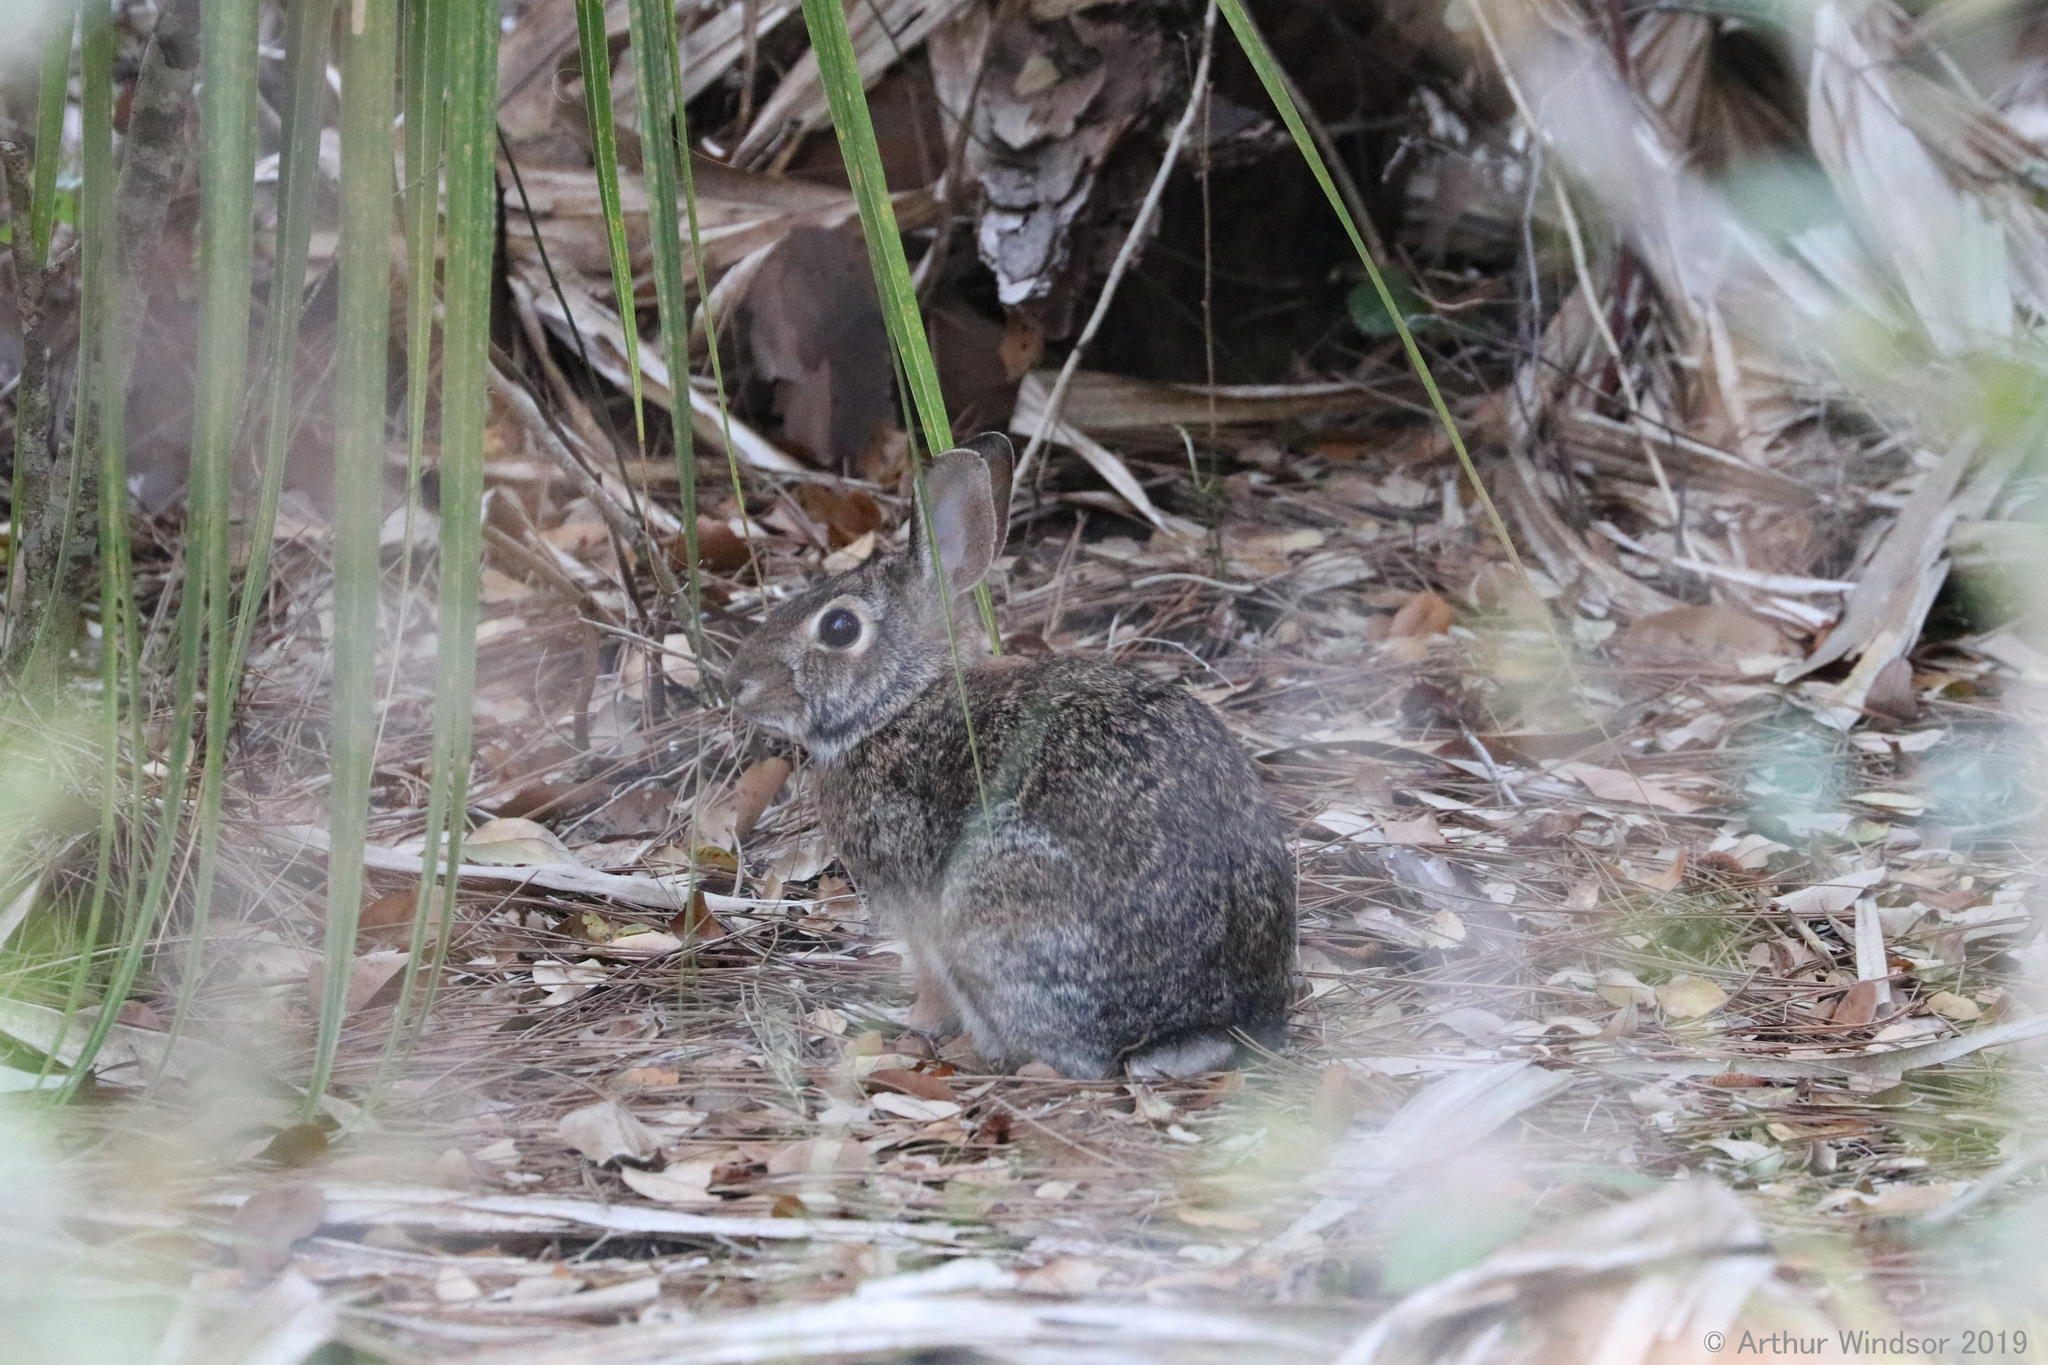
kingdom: Animalia
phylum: Chordata
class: Mammalia
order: Lagomorpha
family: Leporidae
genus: Sylvilagus
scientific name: Sylvilagus floridanus
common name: Eastern cottontail
